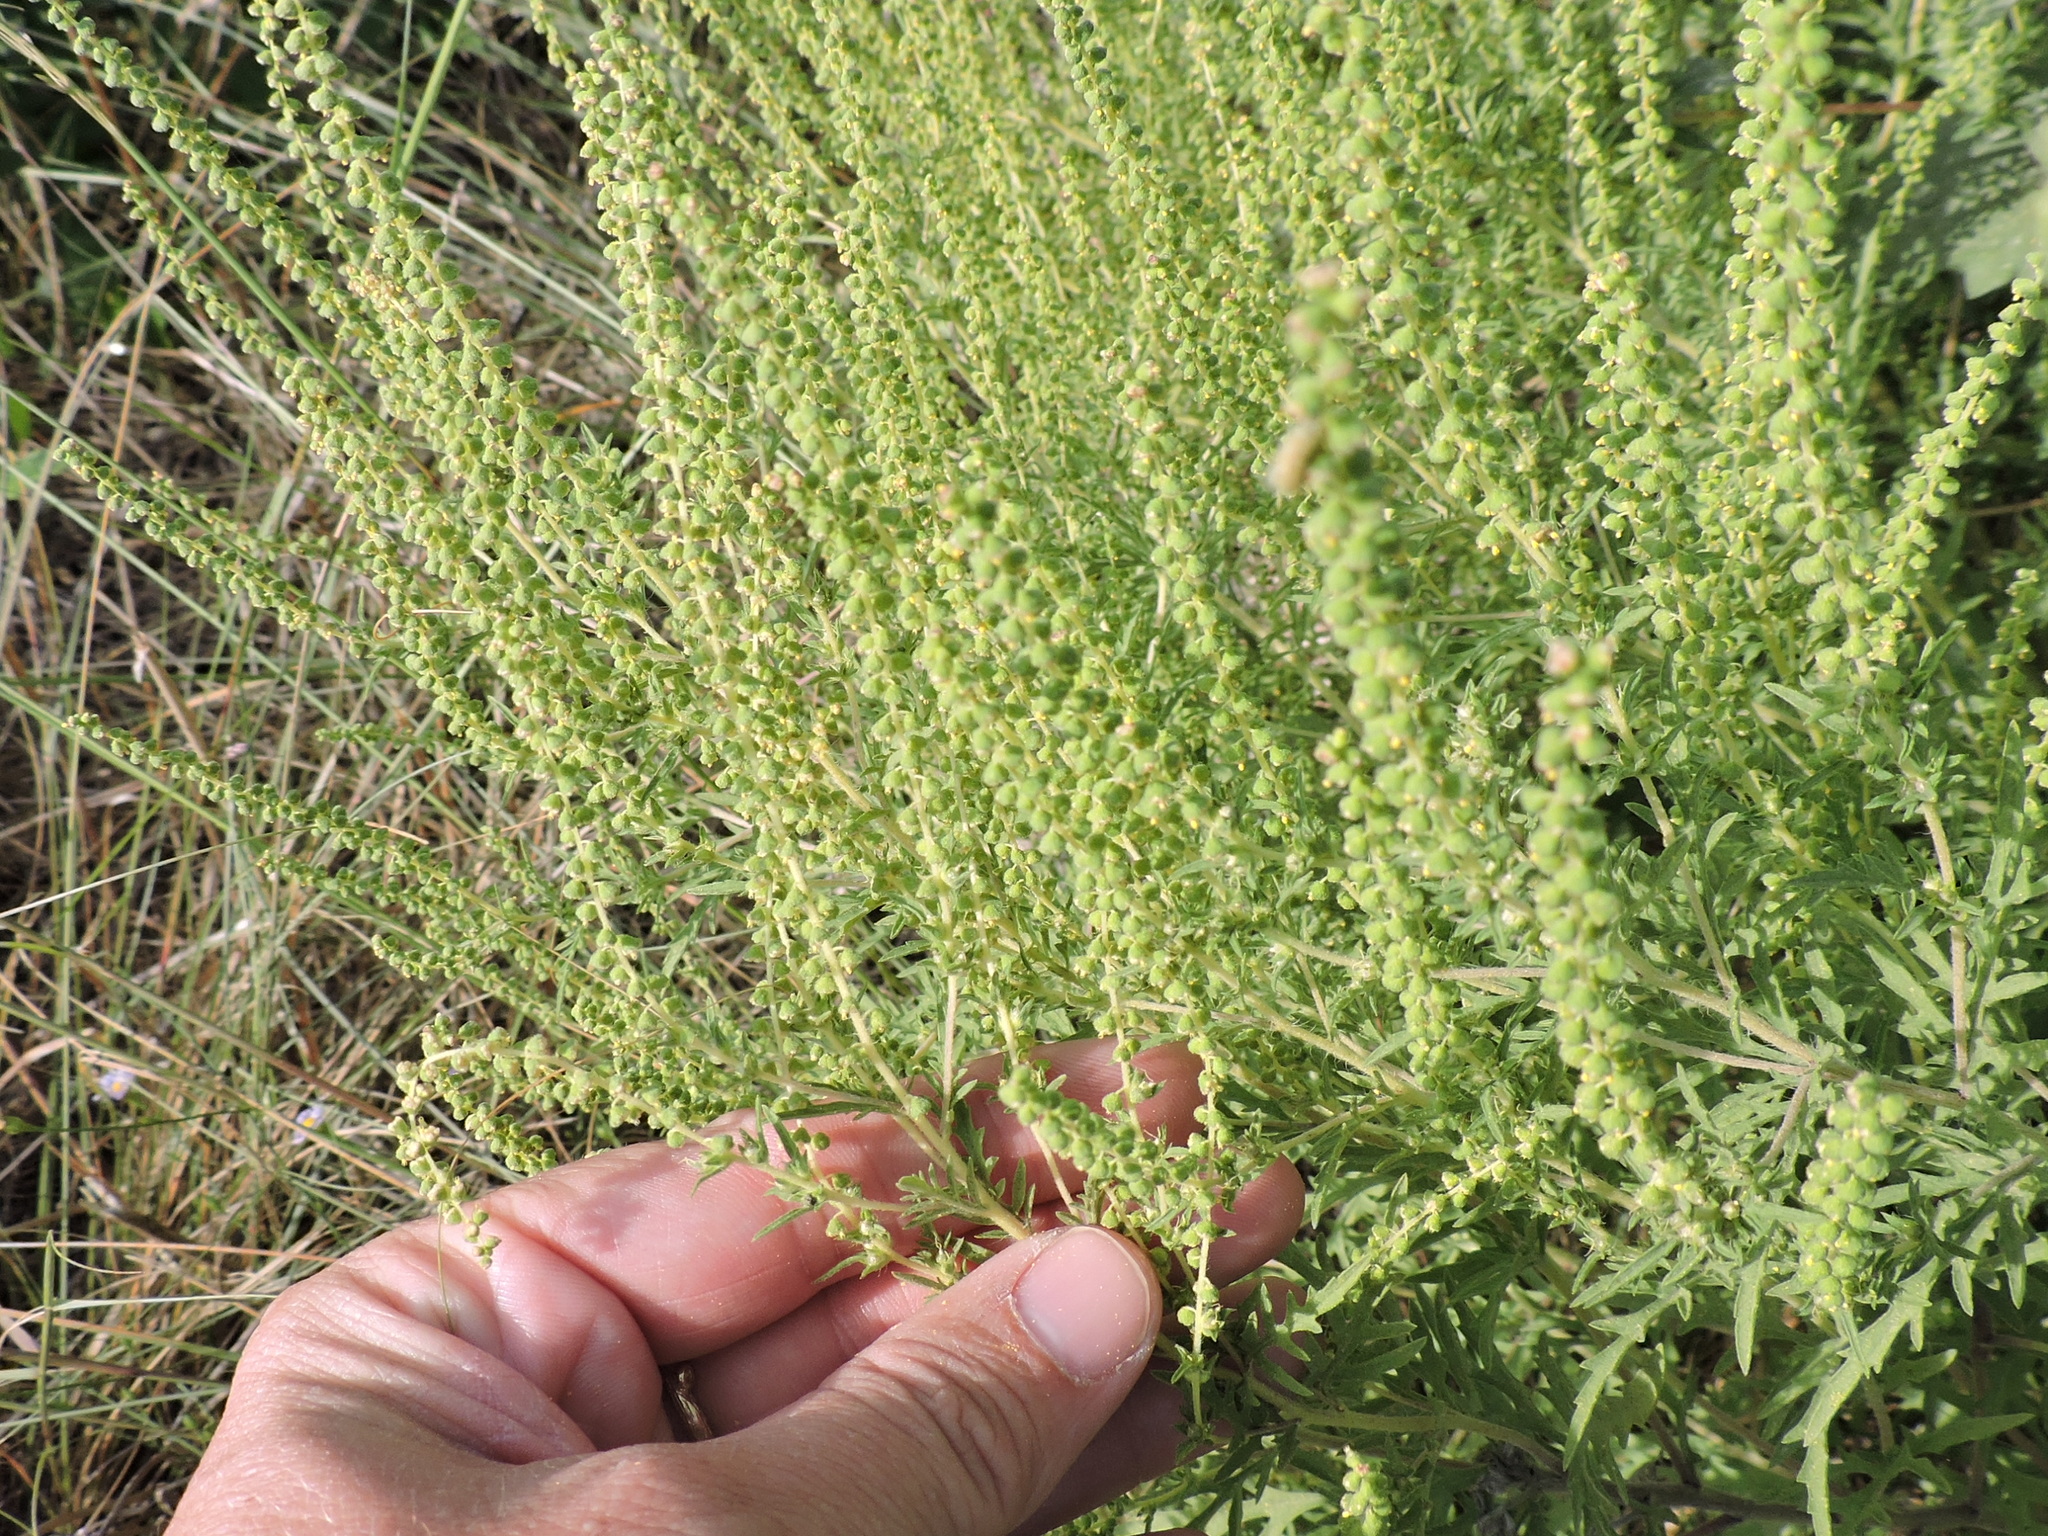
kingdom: Plantae
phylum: Tracheophyta
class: Magnoliopsida
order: Asterales
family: Asteraceae
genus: Ambrosia
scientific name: Ambrosia psilostachya
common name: Perennial ragweed
